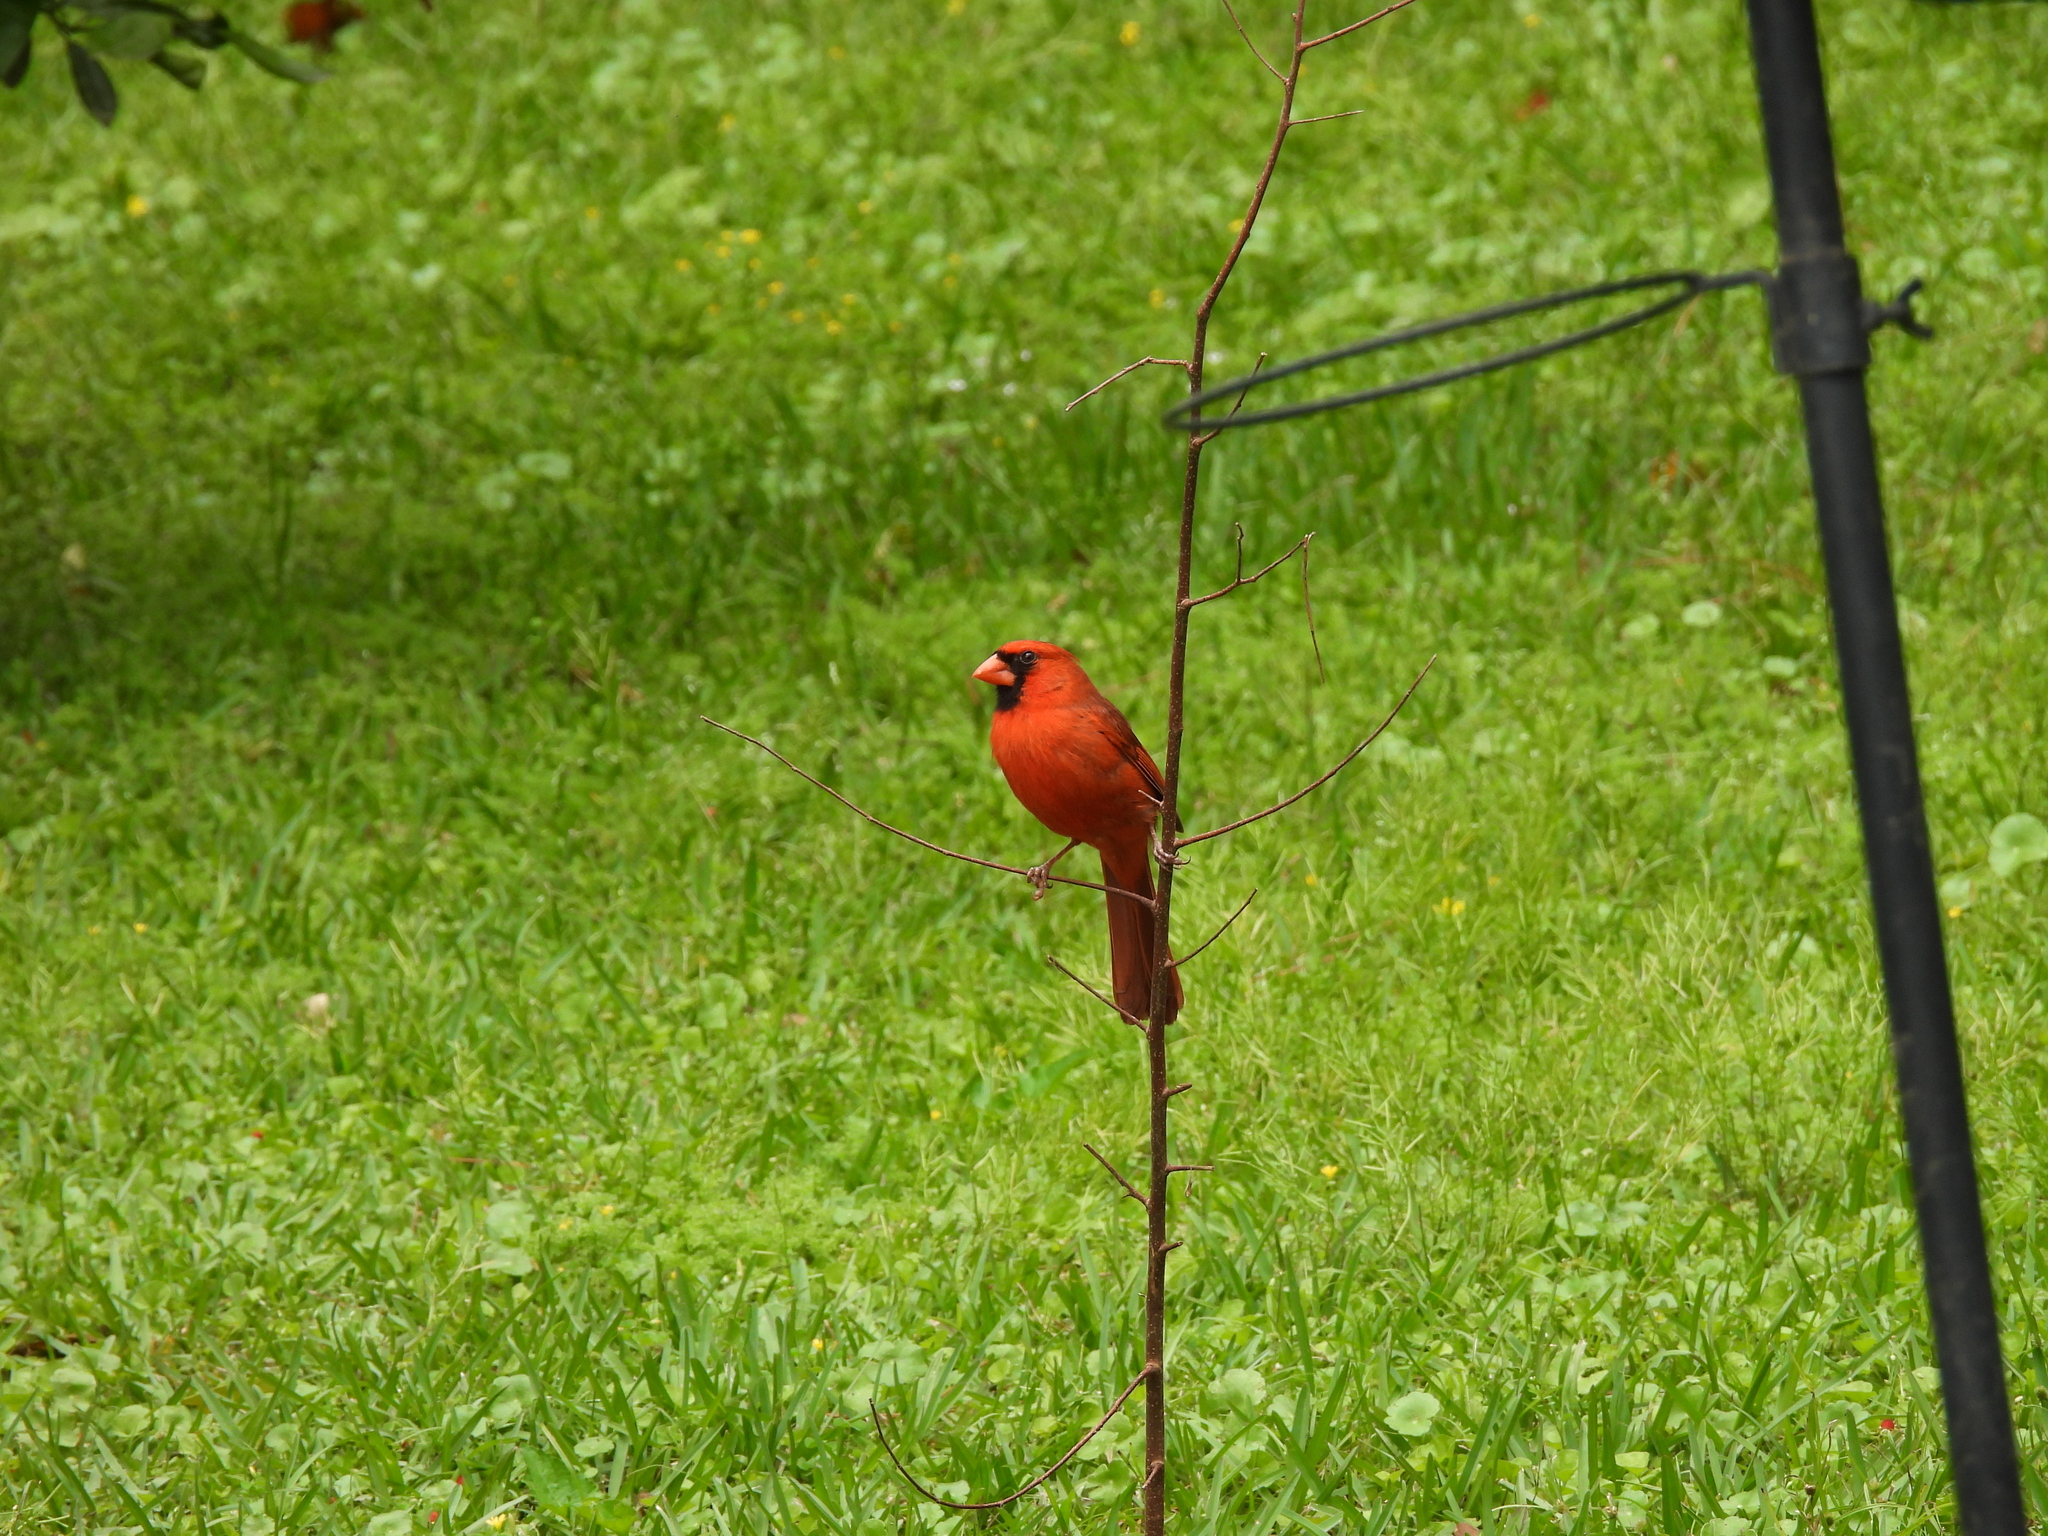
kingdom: Animalia
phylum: Chordata
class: Aves
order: Passeriformes
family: Cardinalidae
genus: Cardinalis
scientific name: Cardinalis cardinalis
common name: Northern cardinal
